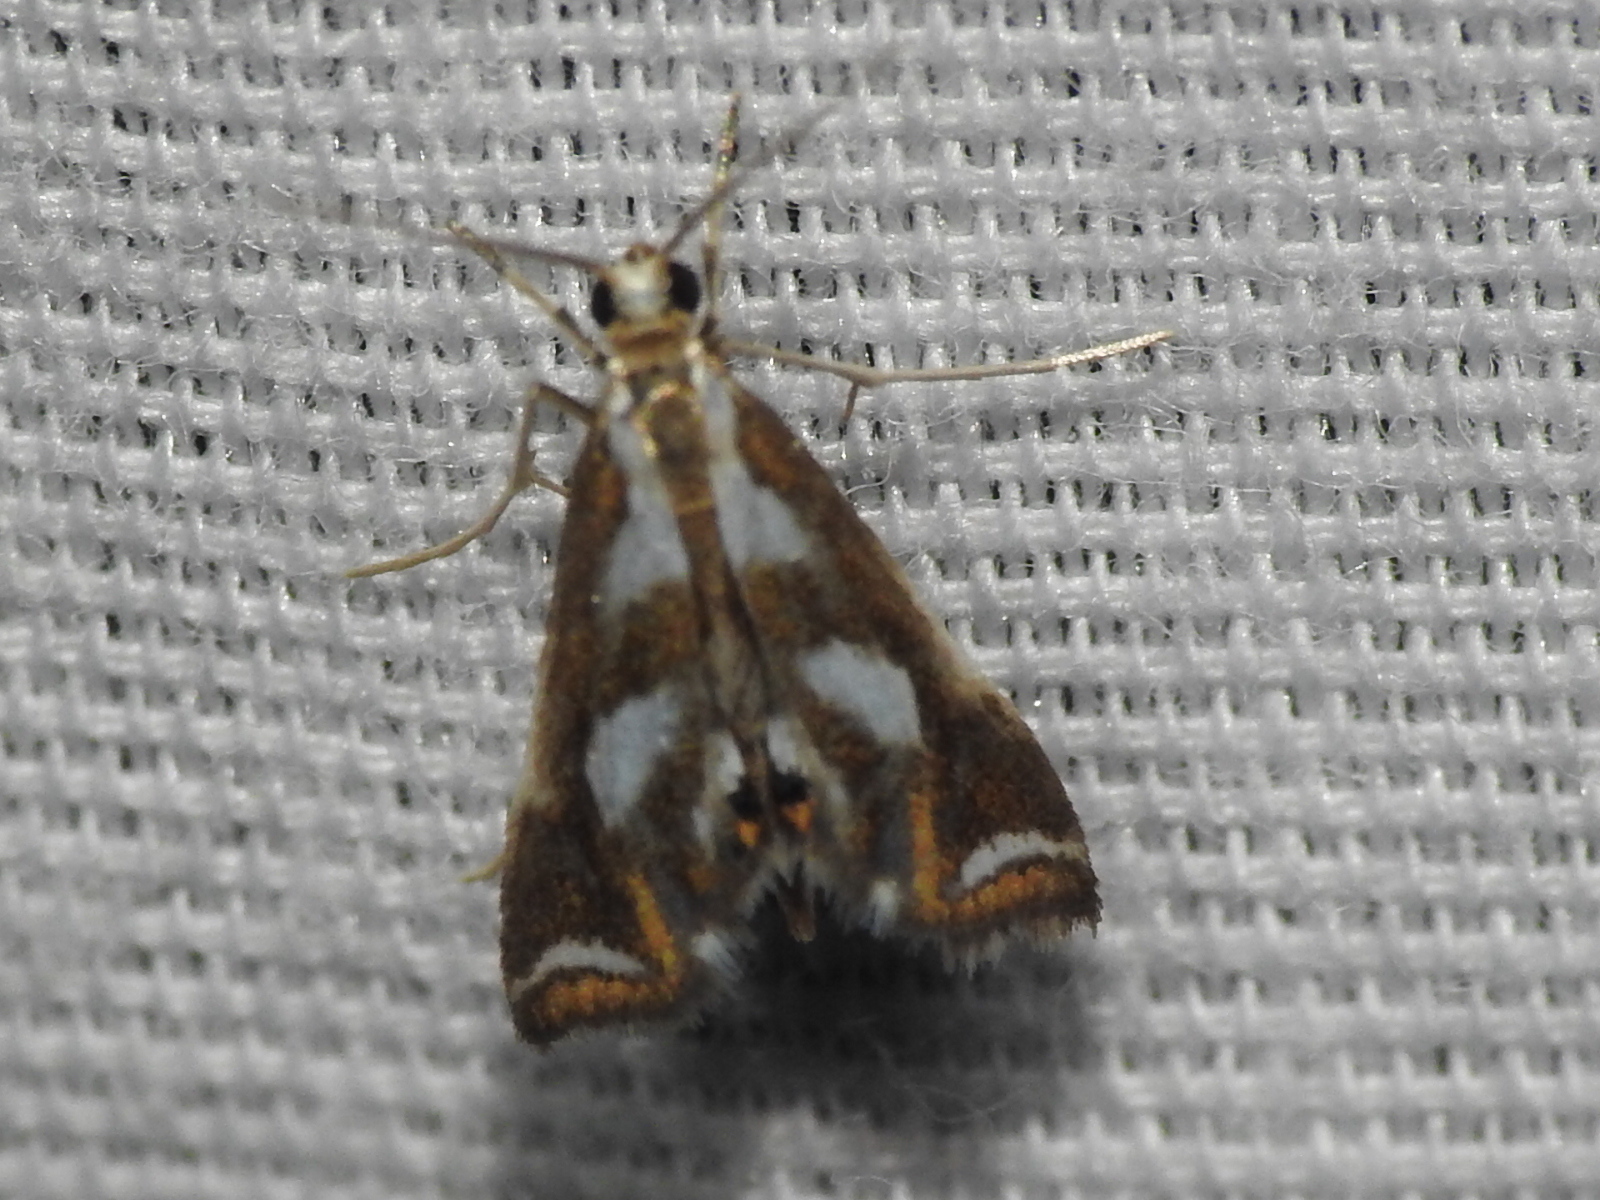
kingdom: Animalia
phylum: Arthropoda
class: Insecta
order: Lepidoptera
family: Crambidae
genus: Chrysendeton
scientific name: Chrysendeton imitabilis
